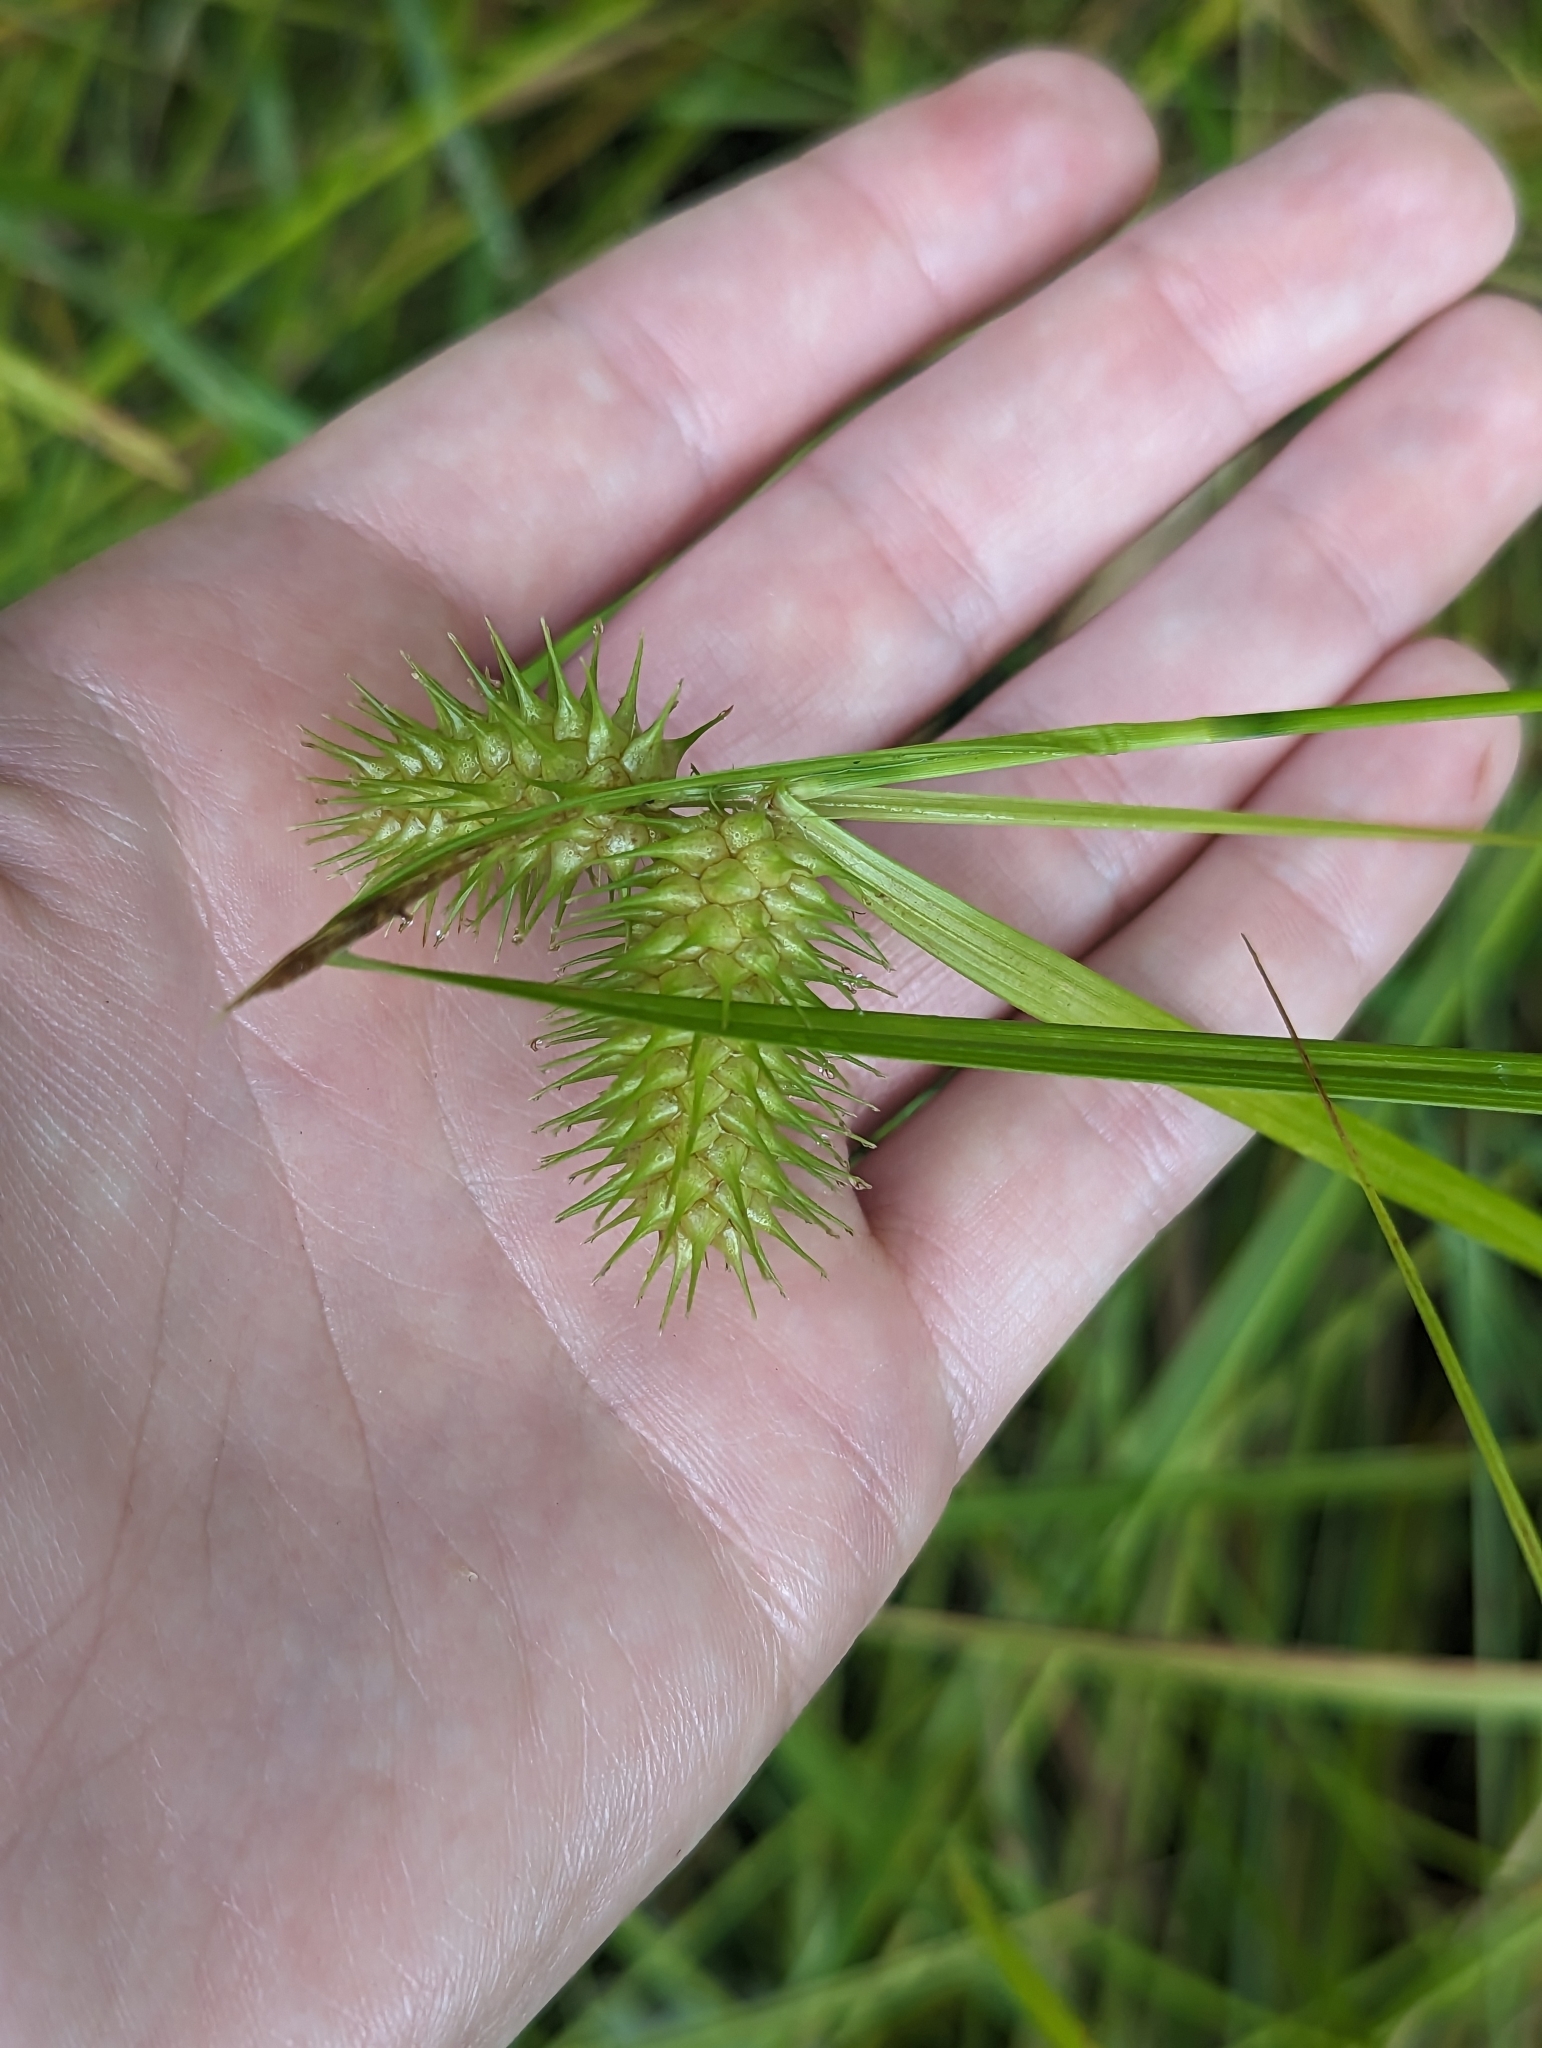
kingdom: Plantae
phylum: Tracheophyta
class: Liliopsida
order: Poales
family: Cyperaceae
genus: Carex
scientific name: Carex lurida
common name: Sallow sedge
